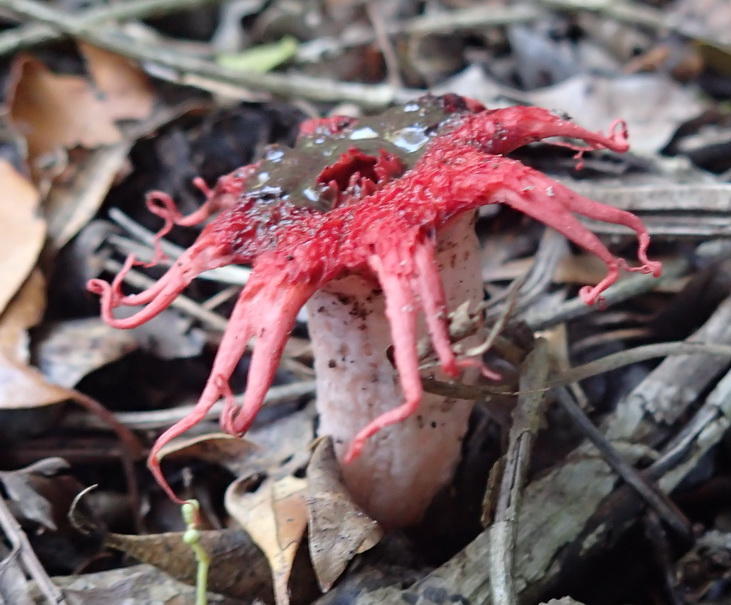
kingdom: Fungi
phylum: Basidiomycota
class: Agaricomycetes
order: Phallales
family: Phallaceae
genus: Aseroe
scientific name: Aseroe rubra
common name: Starfish fungus
